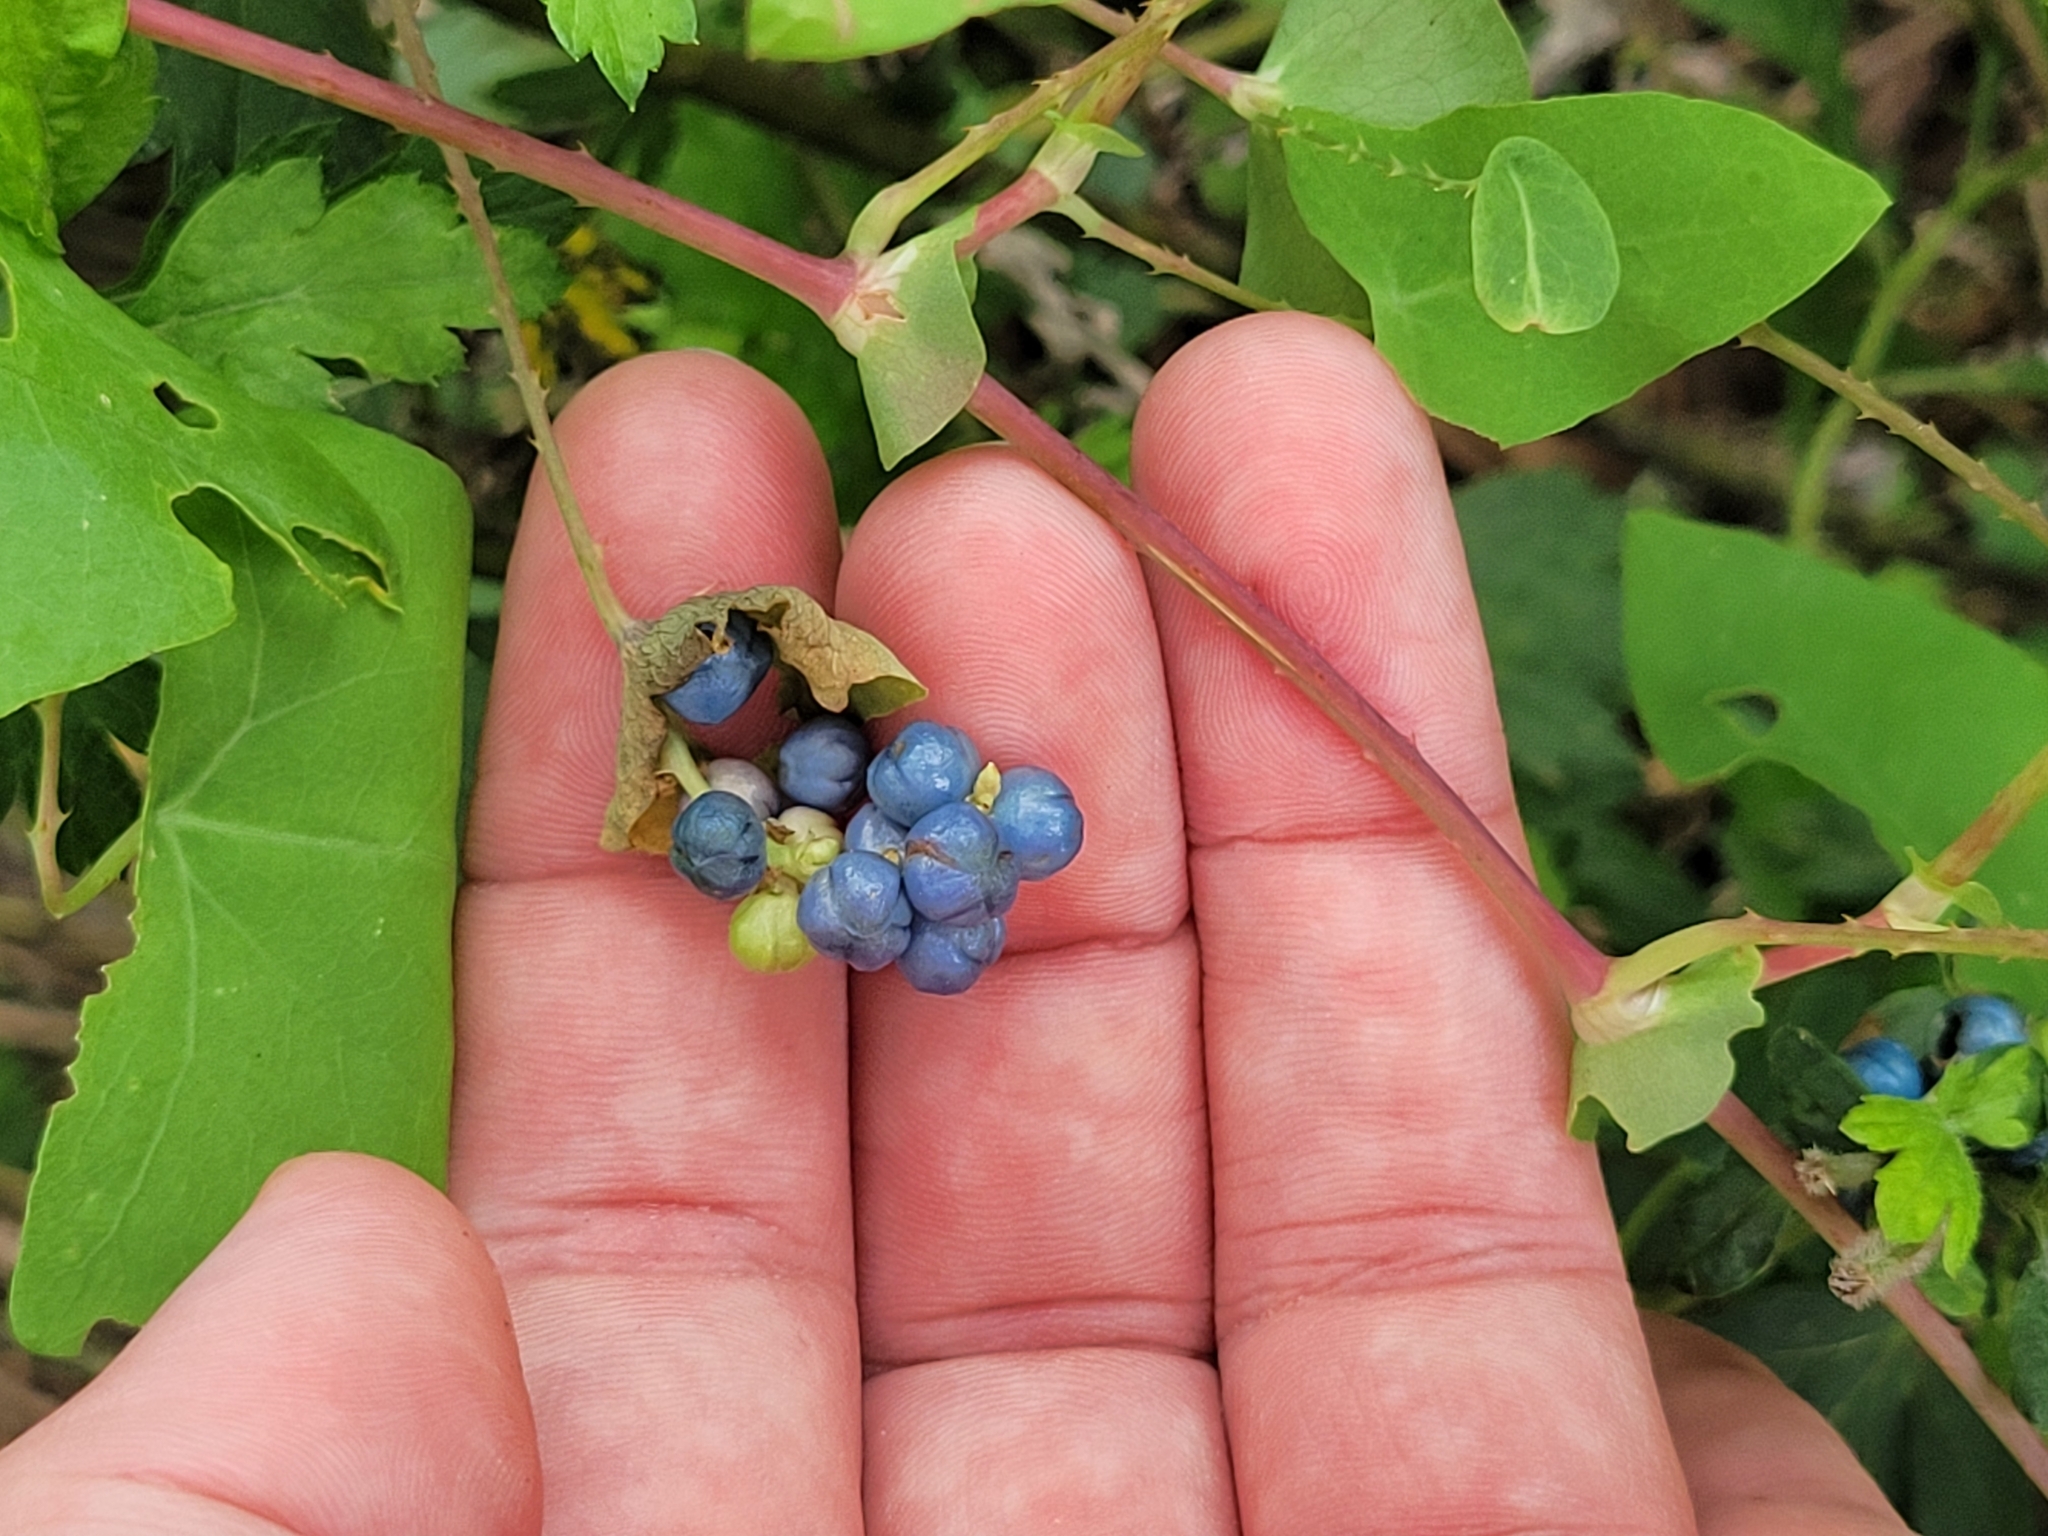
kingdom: Plantae
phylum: Tracheophyta
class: Magnoliopsida
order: Caryophyllales
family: Polygonaceae
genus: Persicaria
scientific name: Persicaria perfoliata
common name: Asiatic tearthumb
